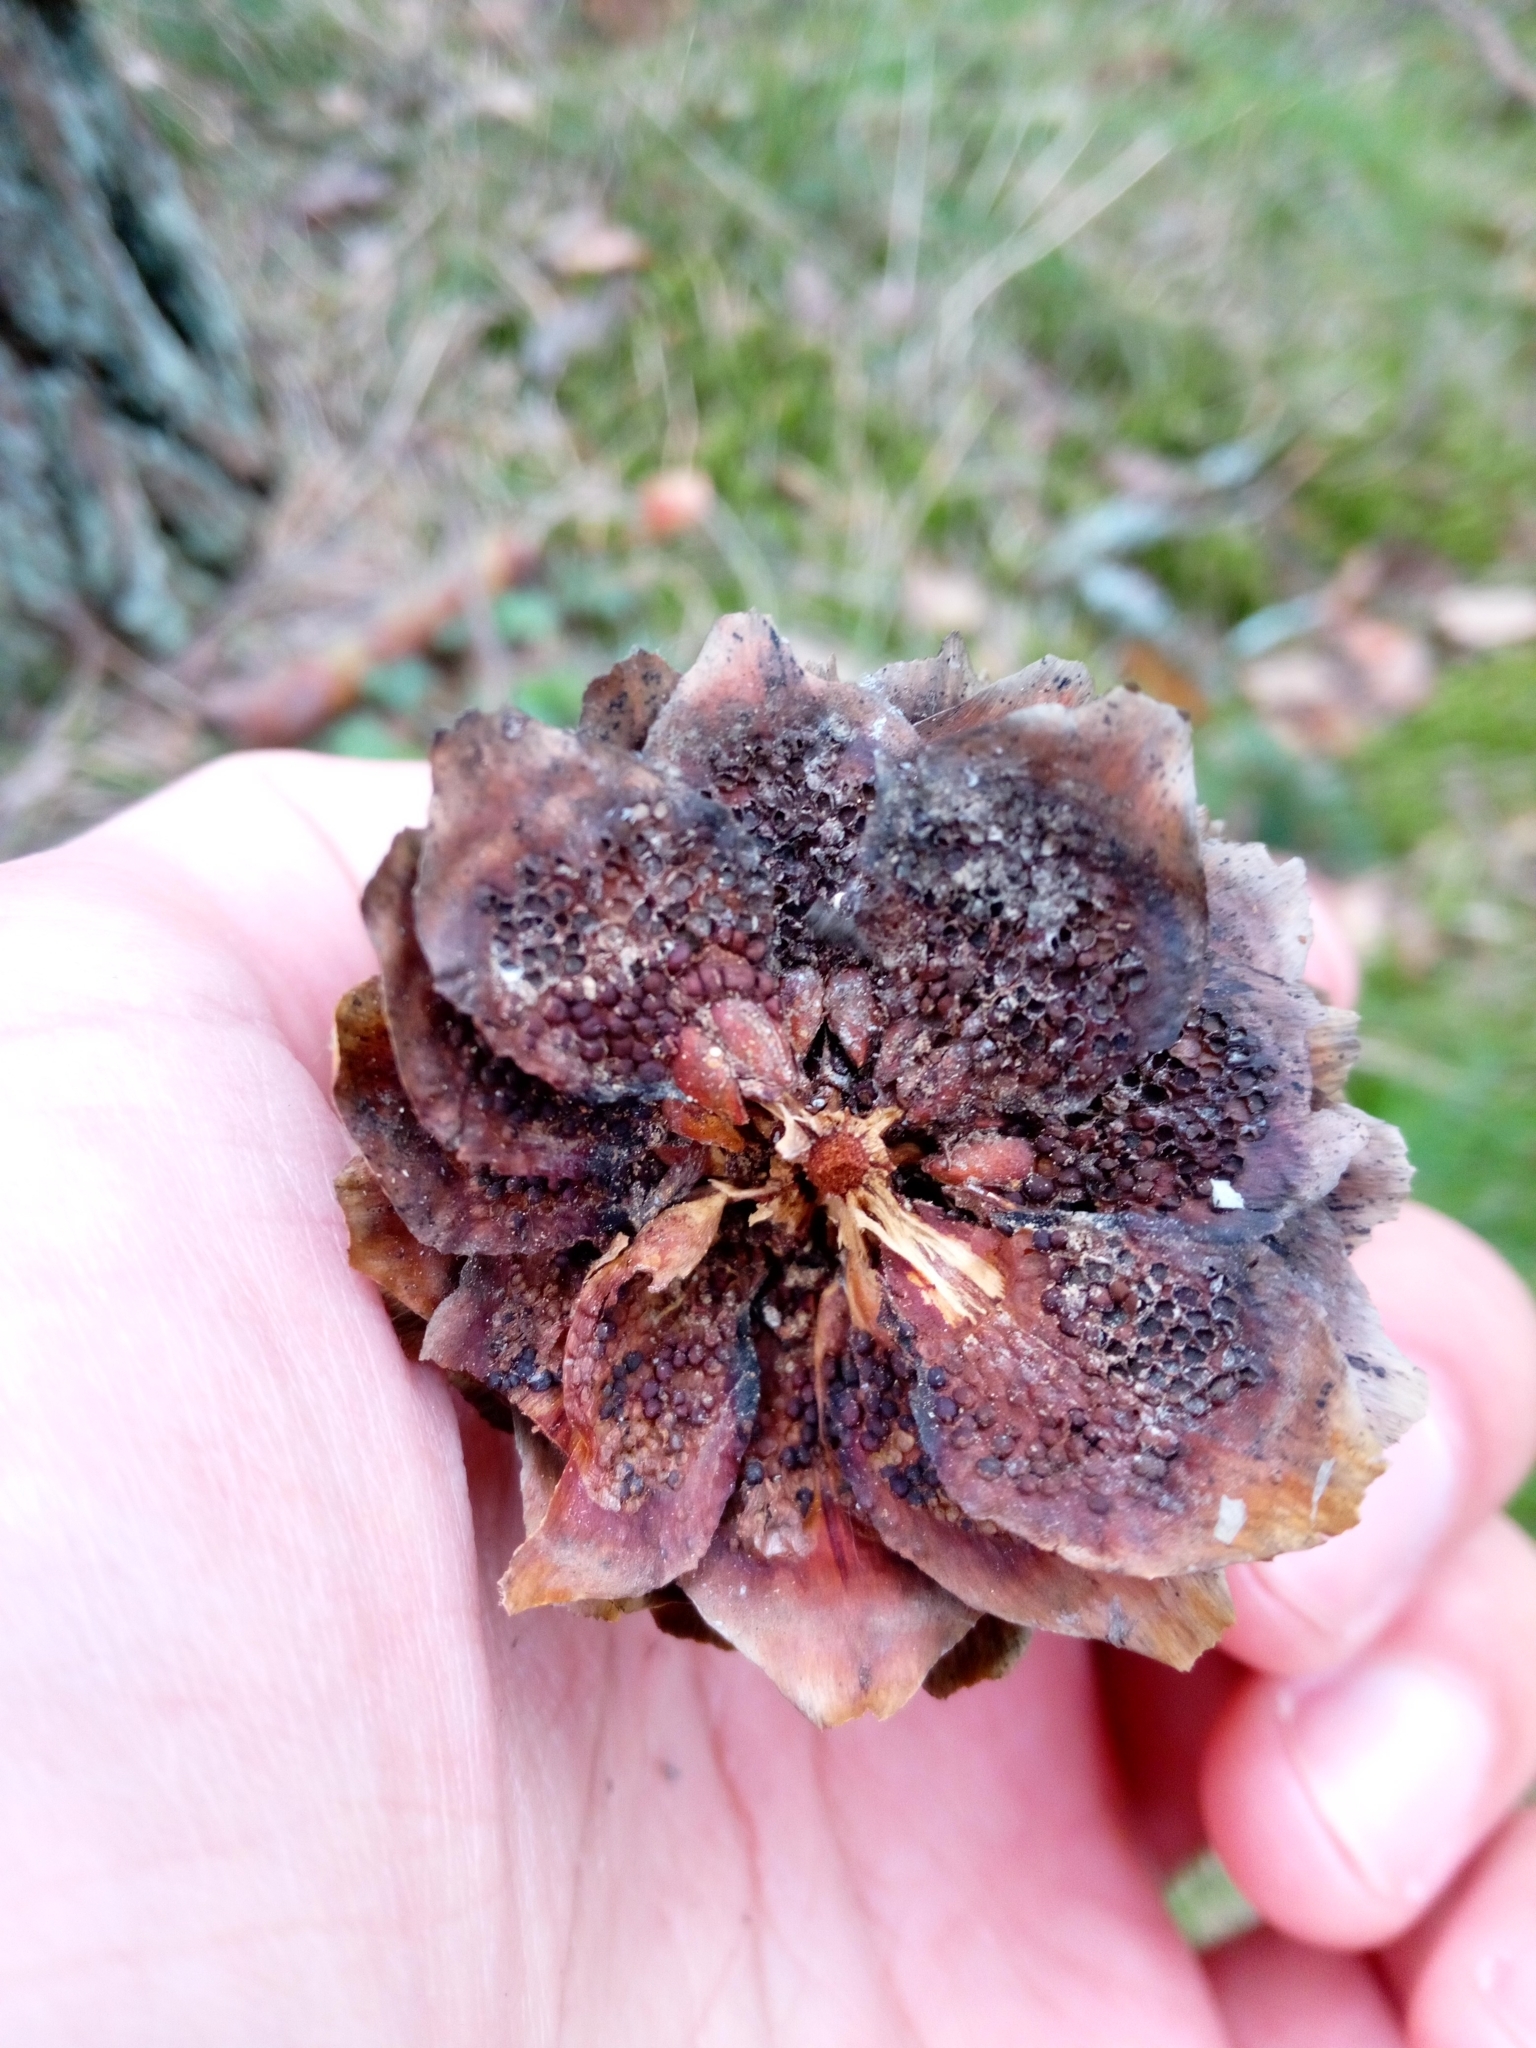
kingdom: Fungi
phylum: Basidiomycota
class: Pucciniomycetes
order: Pucciniales
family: Pucciniastraceae
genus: Thekopsora
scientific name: Thekopsora areolata
